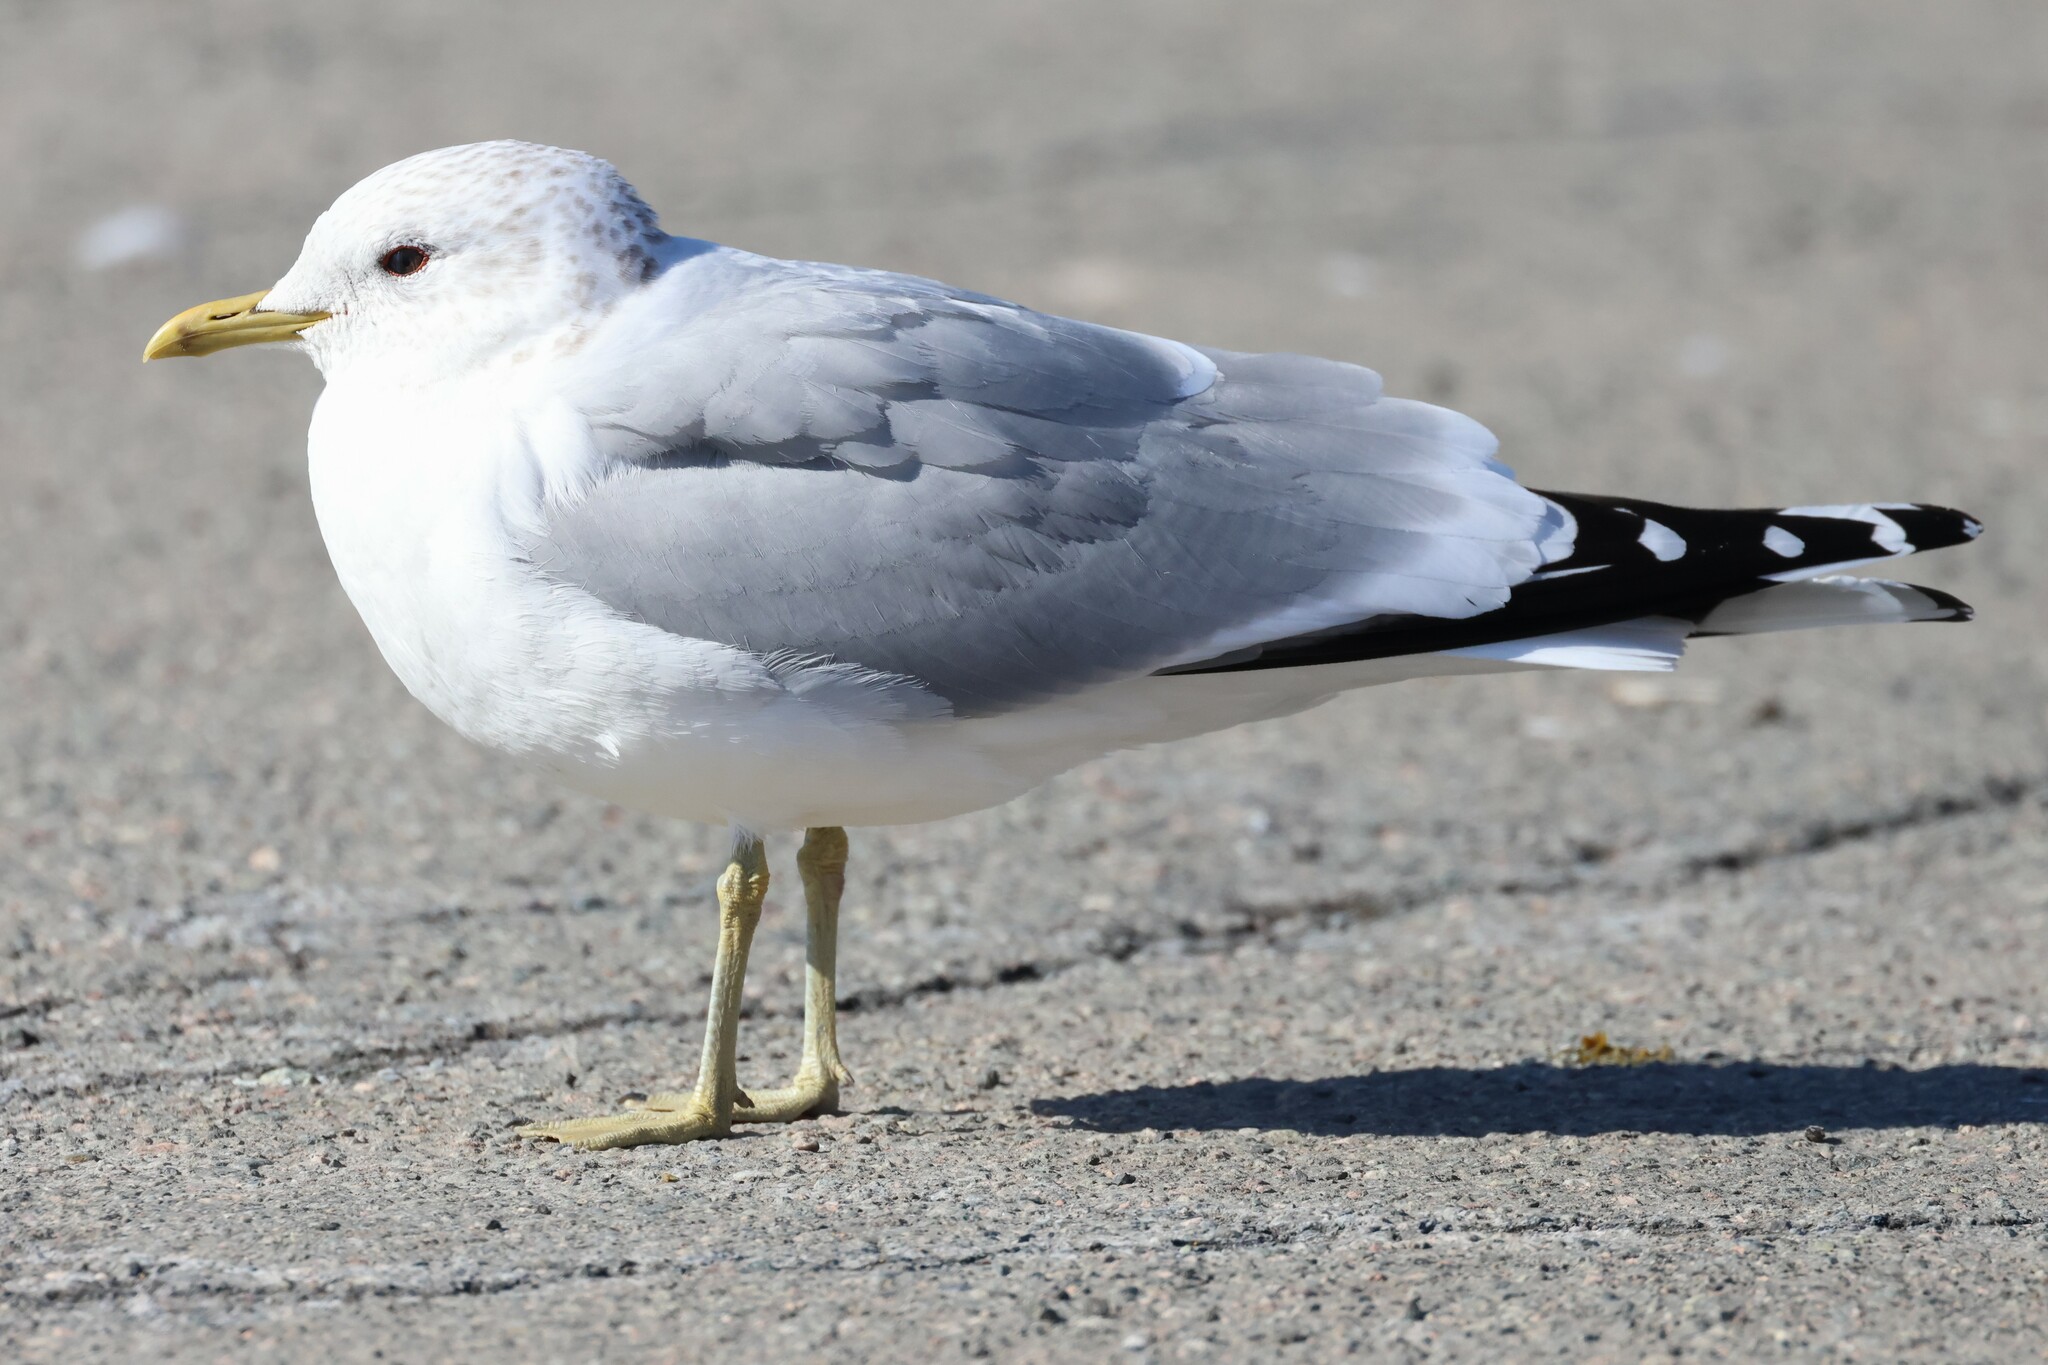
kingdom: Animalia
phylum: Chordata
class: Aves
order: Charadriiformes
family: Laridae
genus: Larus
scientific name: Larus canus
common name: Mew gull
